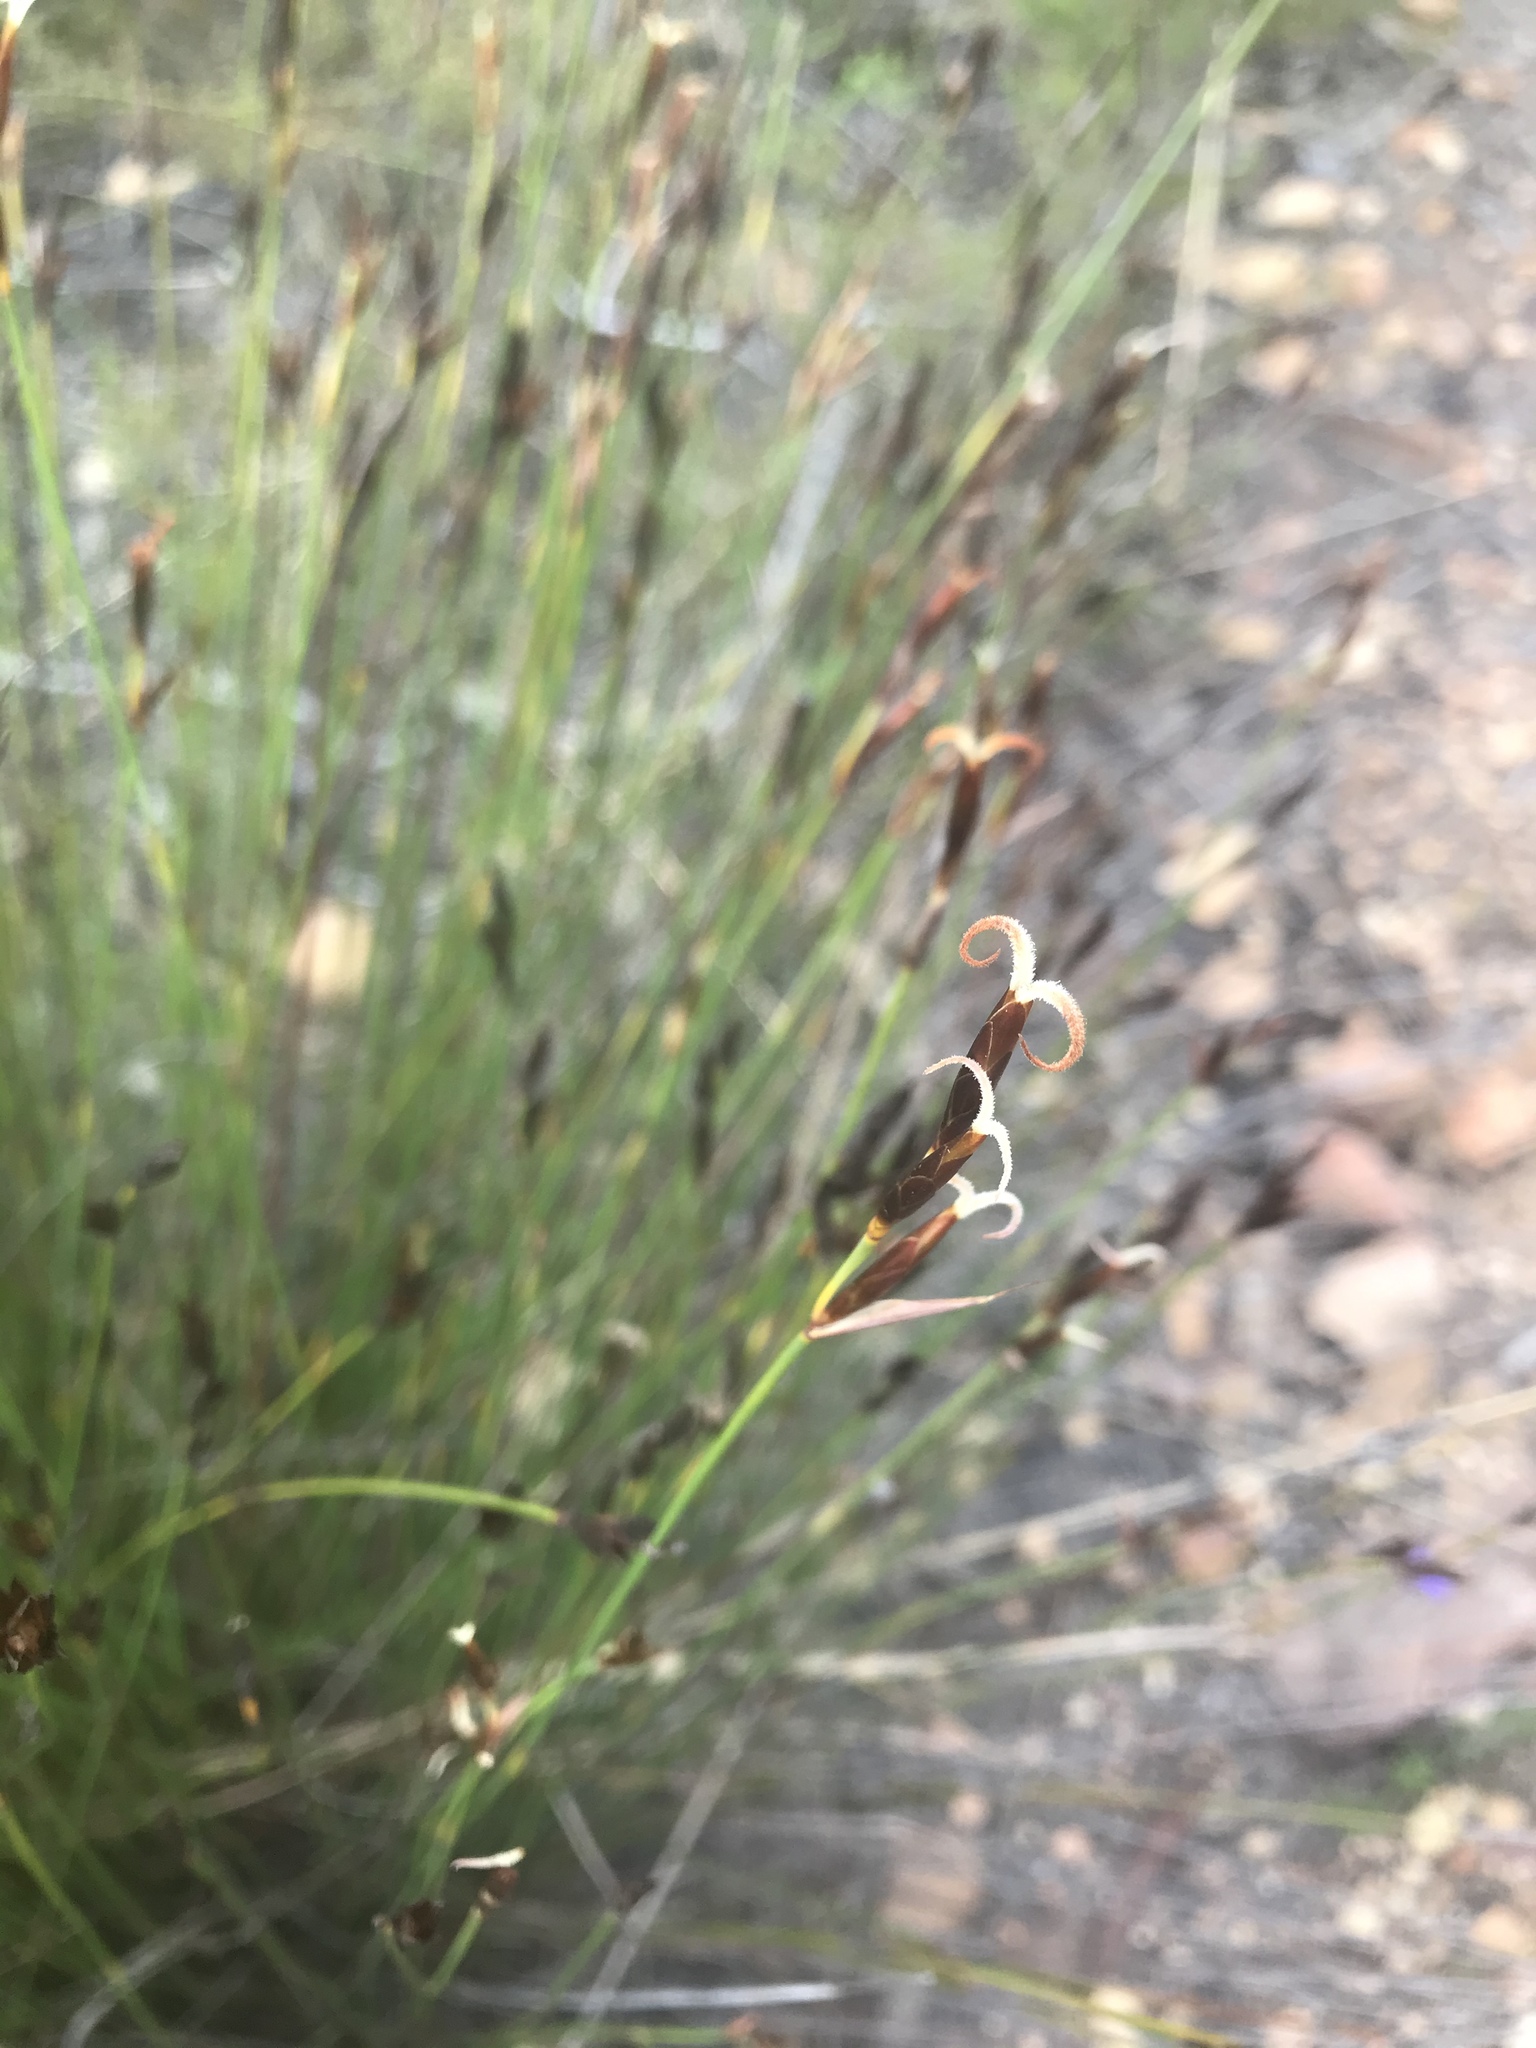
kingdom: Plantae
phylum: Tracheophyta
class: Liliopsida
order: Poales
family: Restionaceae
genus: Hypodiscus
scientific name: Hypodiscus striatus
